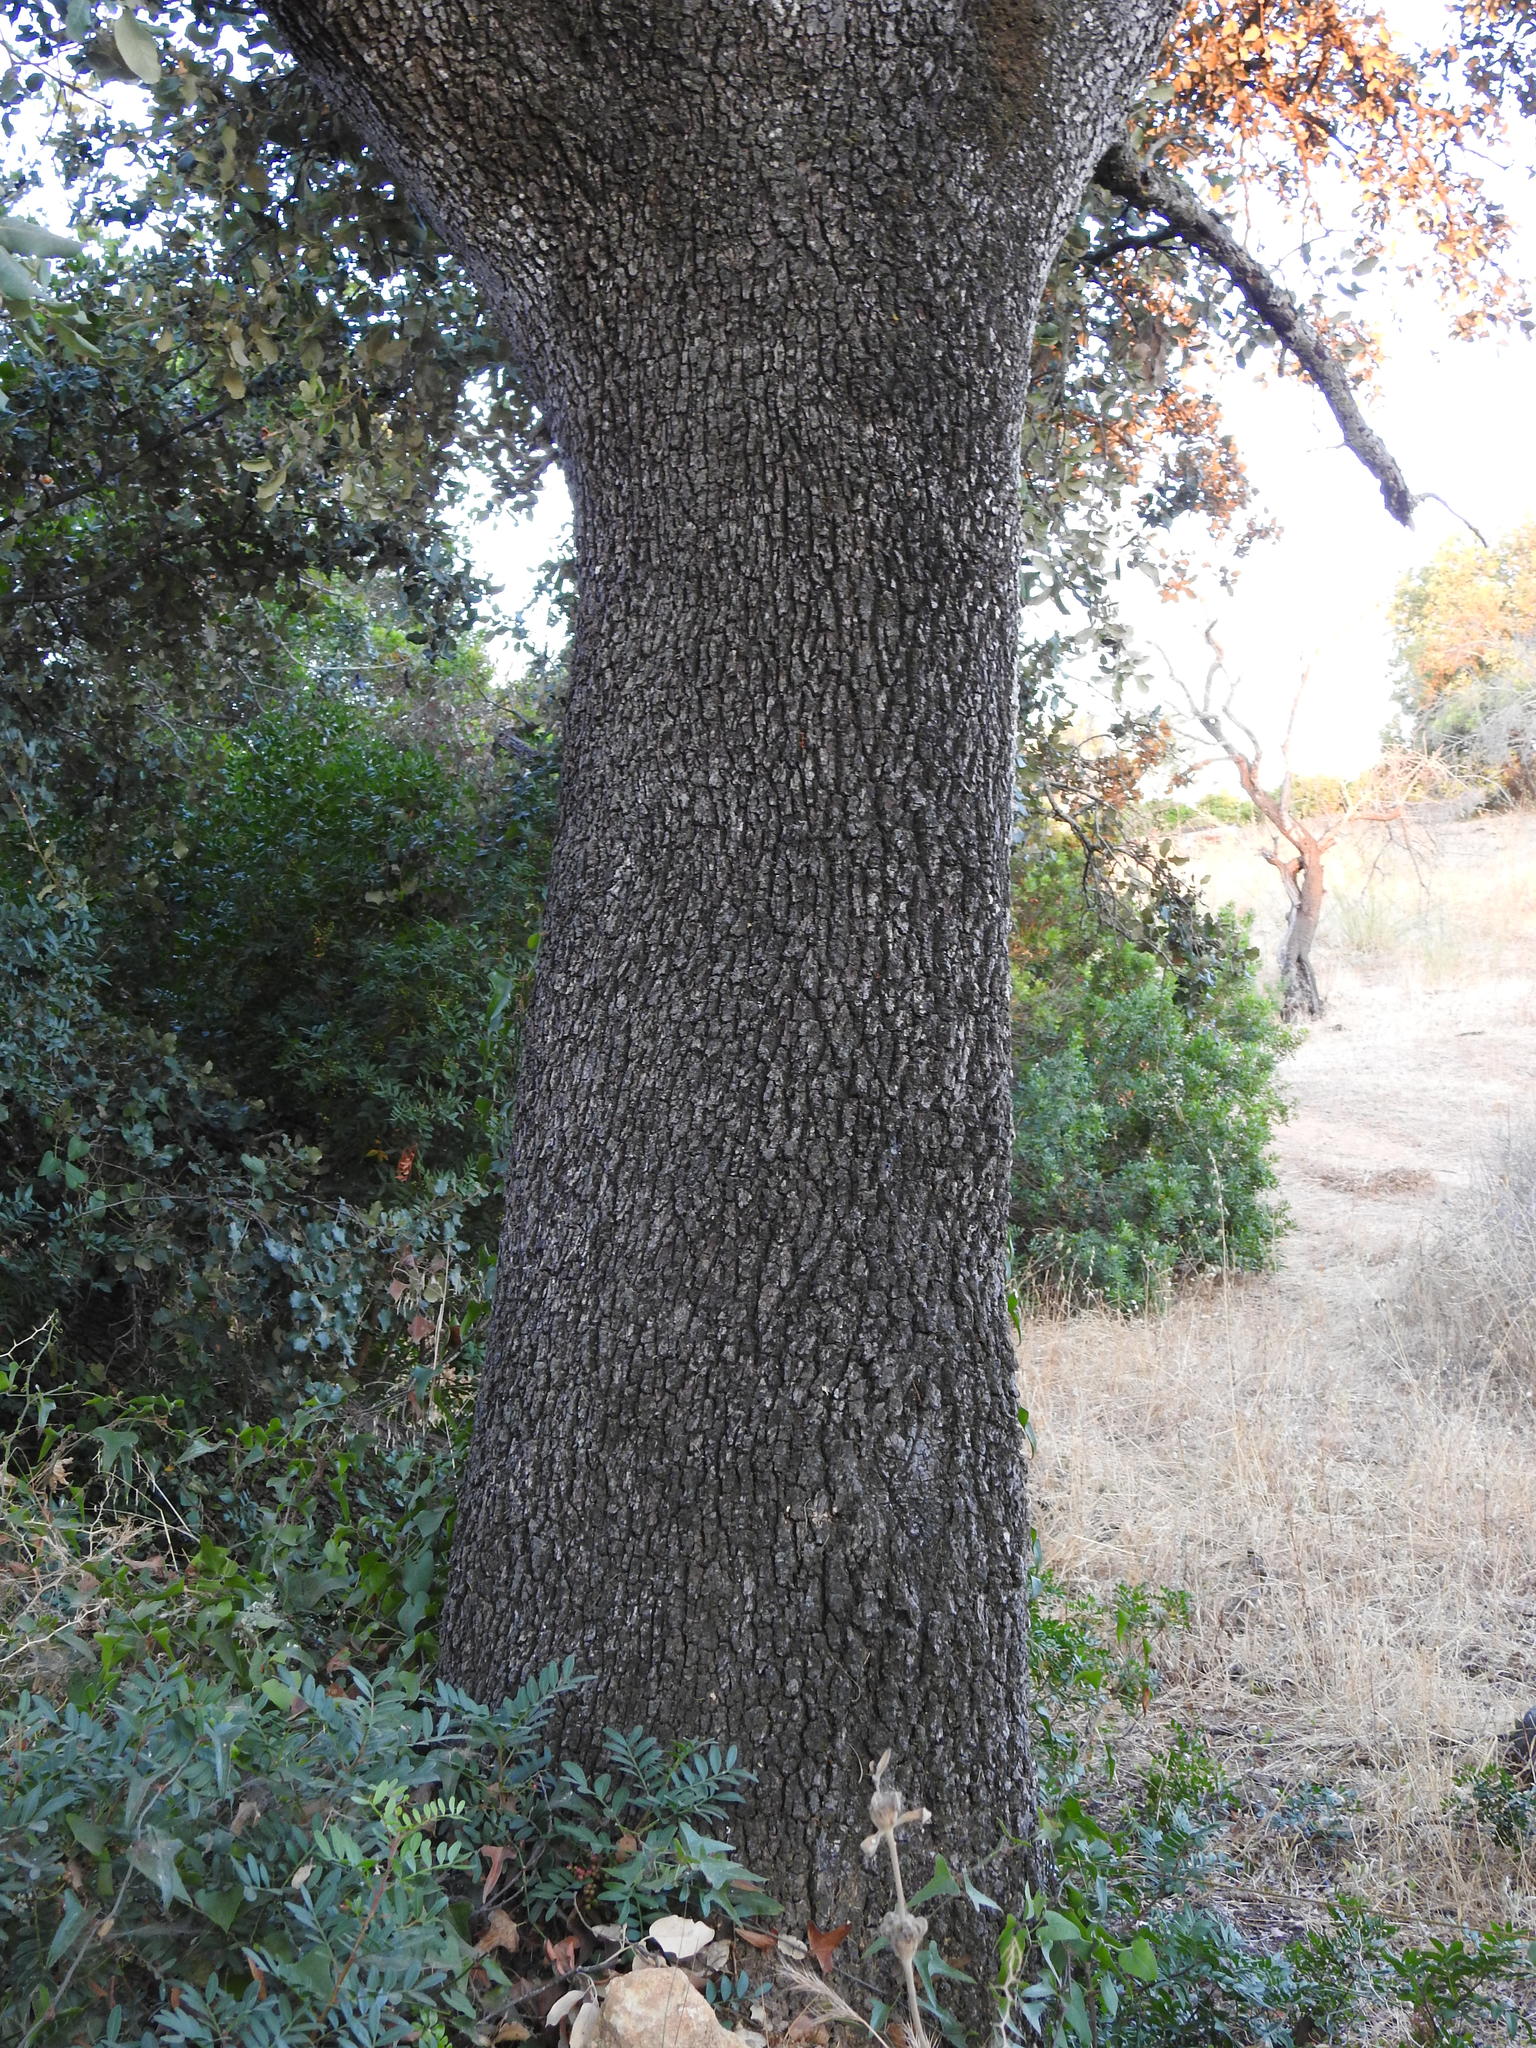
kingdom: Plantae
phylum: Tracheophyta
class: Magnoliopsida
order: Fagales
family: Fagaceae
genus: Quercus
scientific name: Quercus rotundifolia
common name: Holm oak
